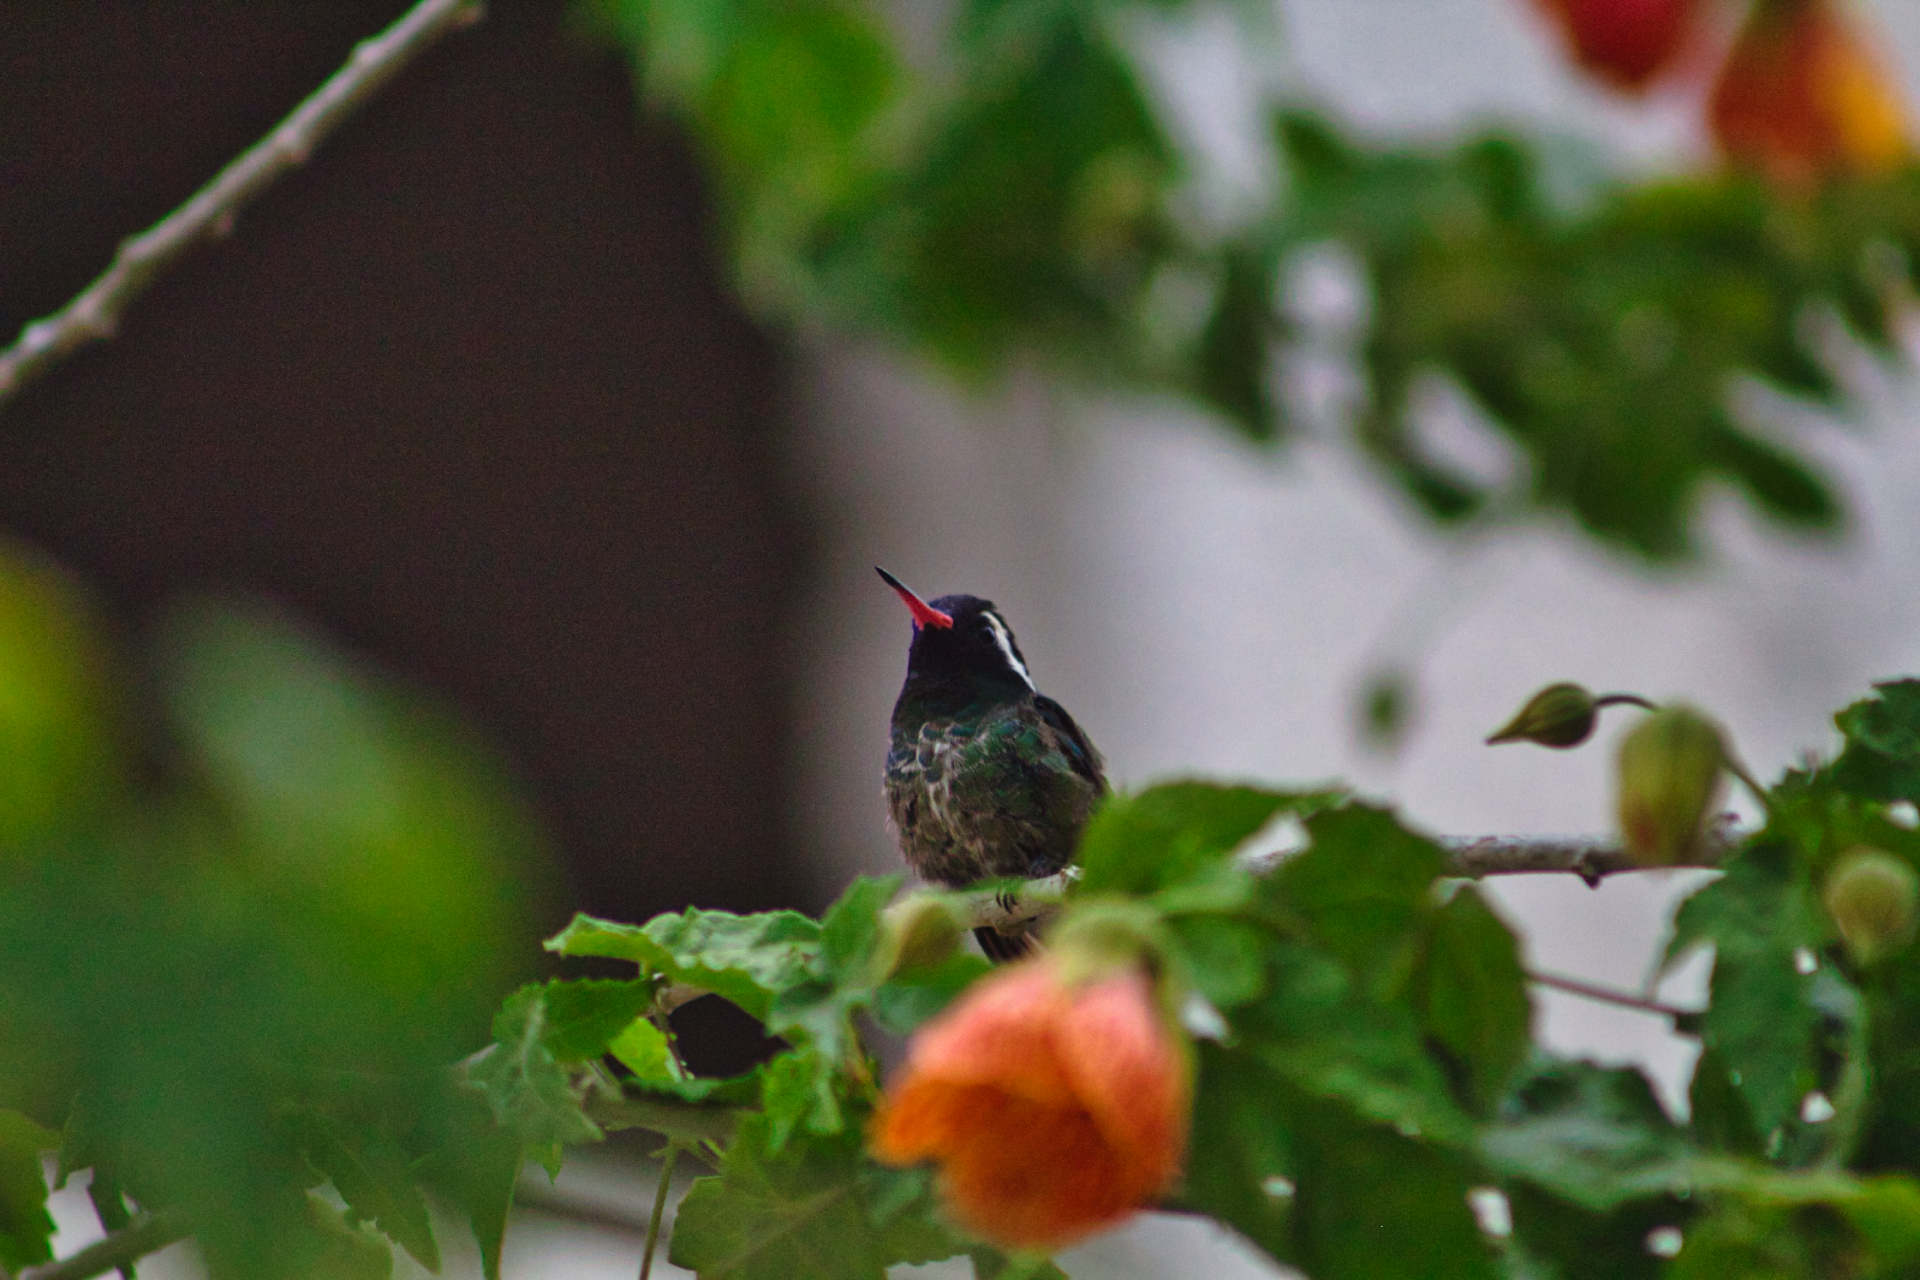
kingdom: Animalia
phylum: Chordata
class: Aves
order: Apodiformes
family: Trochilidae
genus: Basilinna
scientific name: Basilinna leucotis
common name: White-eared hummingbird
